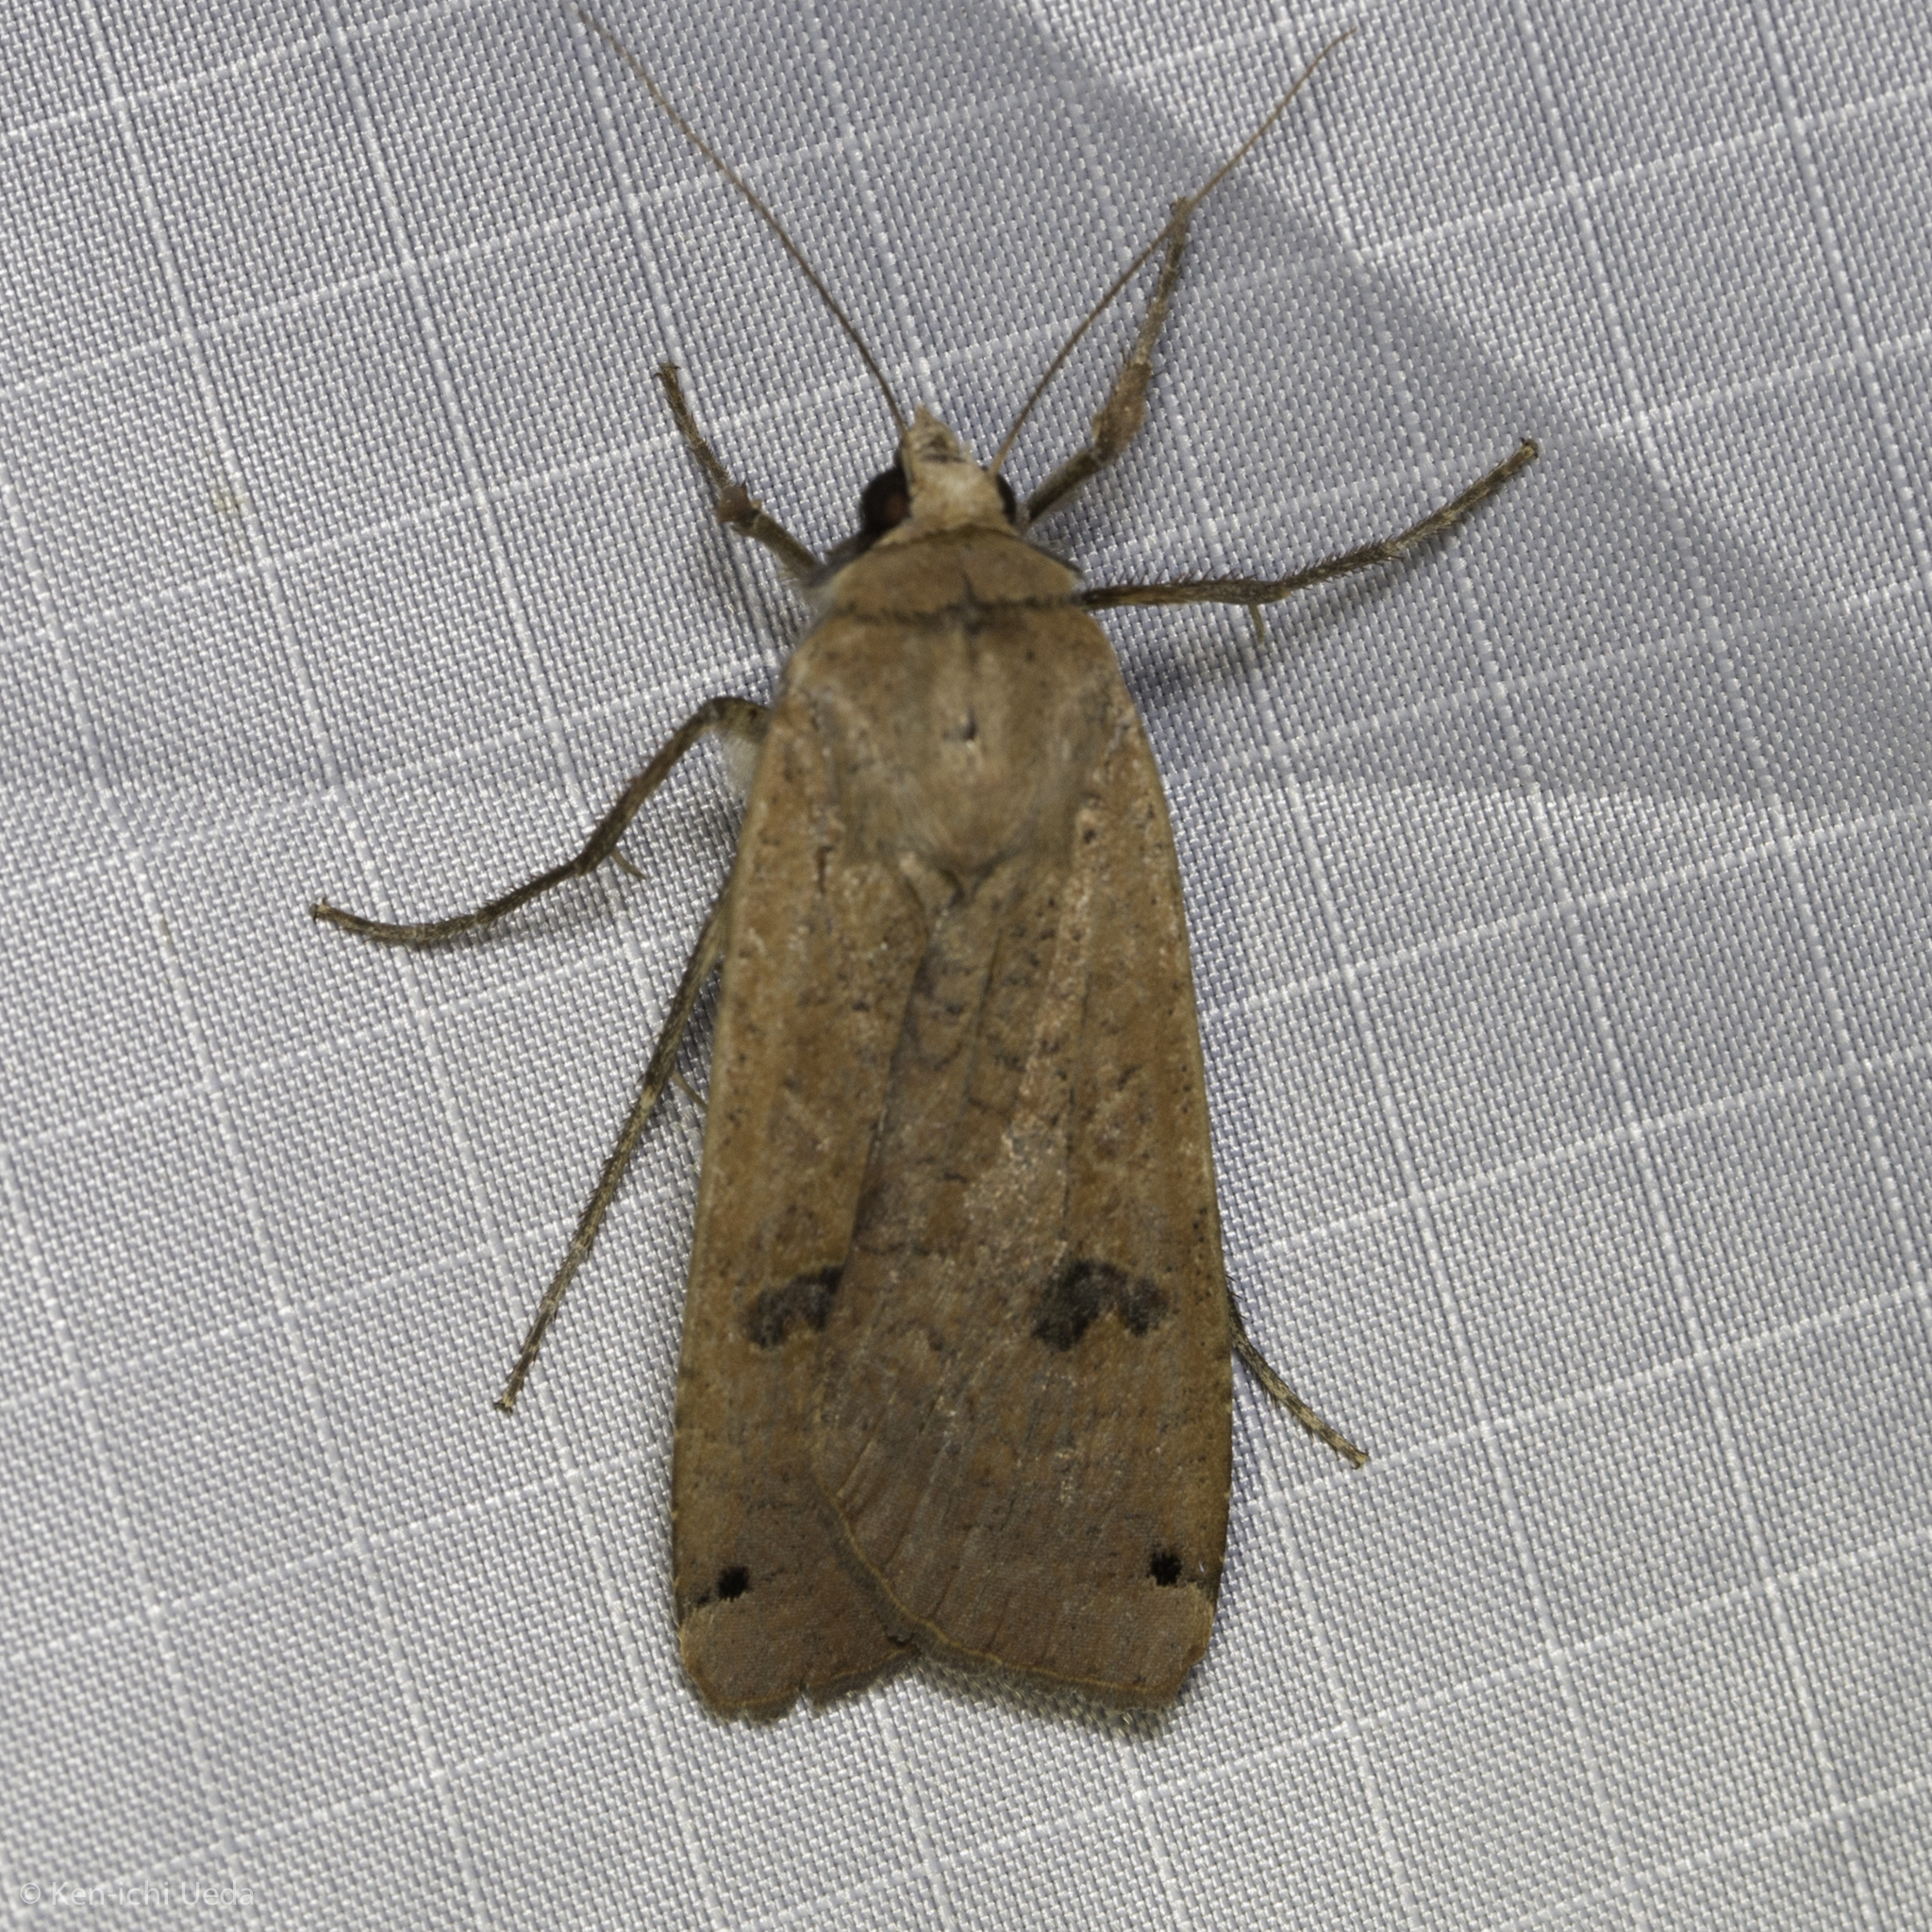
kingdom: Animalia
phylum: Arthropoda
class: Insecta
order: Lepidoptera
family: Noctuidae
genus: Noctua
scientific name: Noctua pronuba
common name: Large yellow underwing
